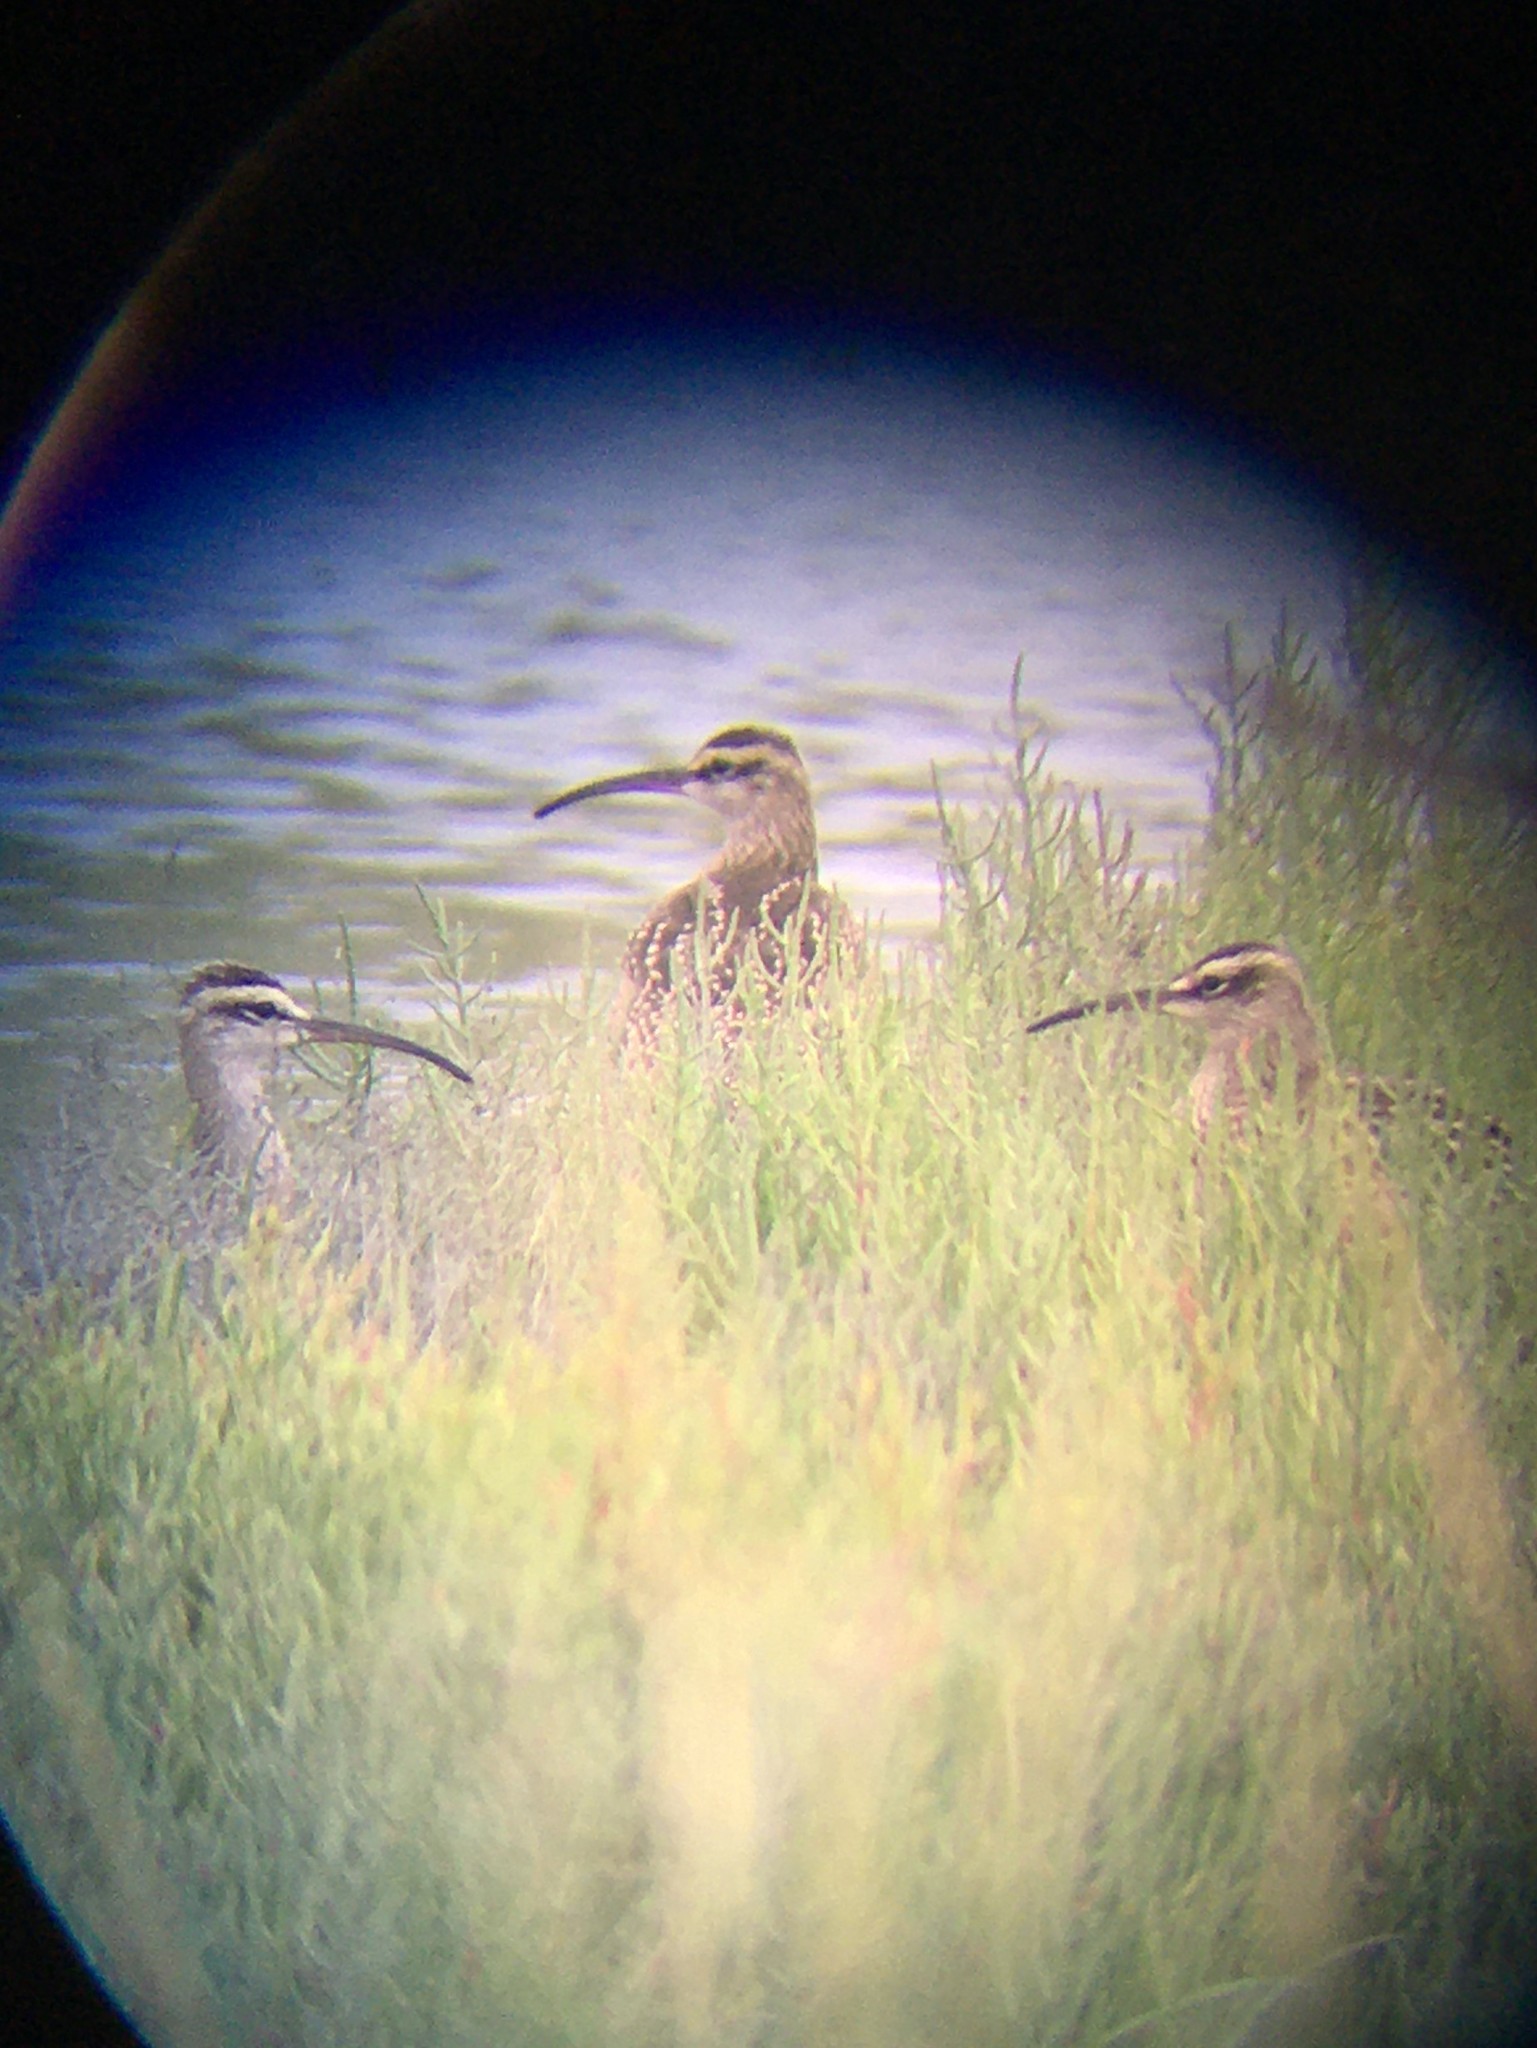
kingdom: Animalia
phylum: Chordata
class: Aves
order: Charadriiformes
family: Scolopacidae
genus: Numenius
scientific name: Numenius hudsonicus
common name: Hudsonian whimbrel
